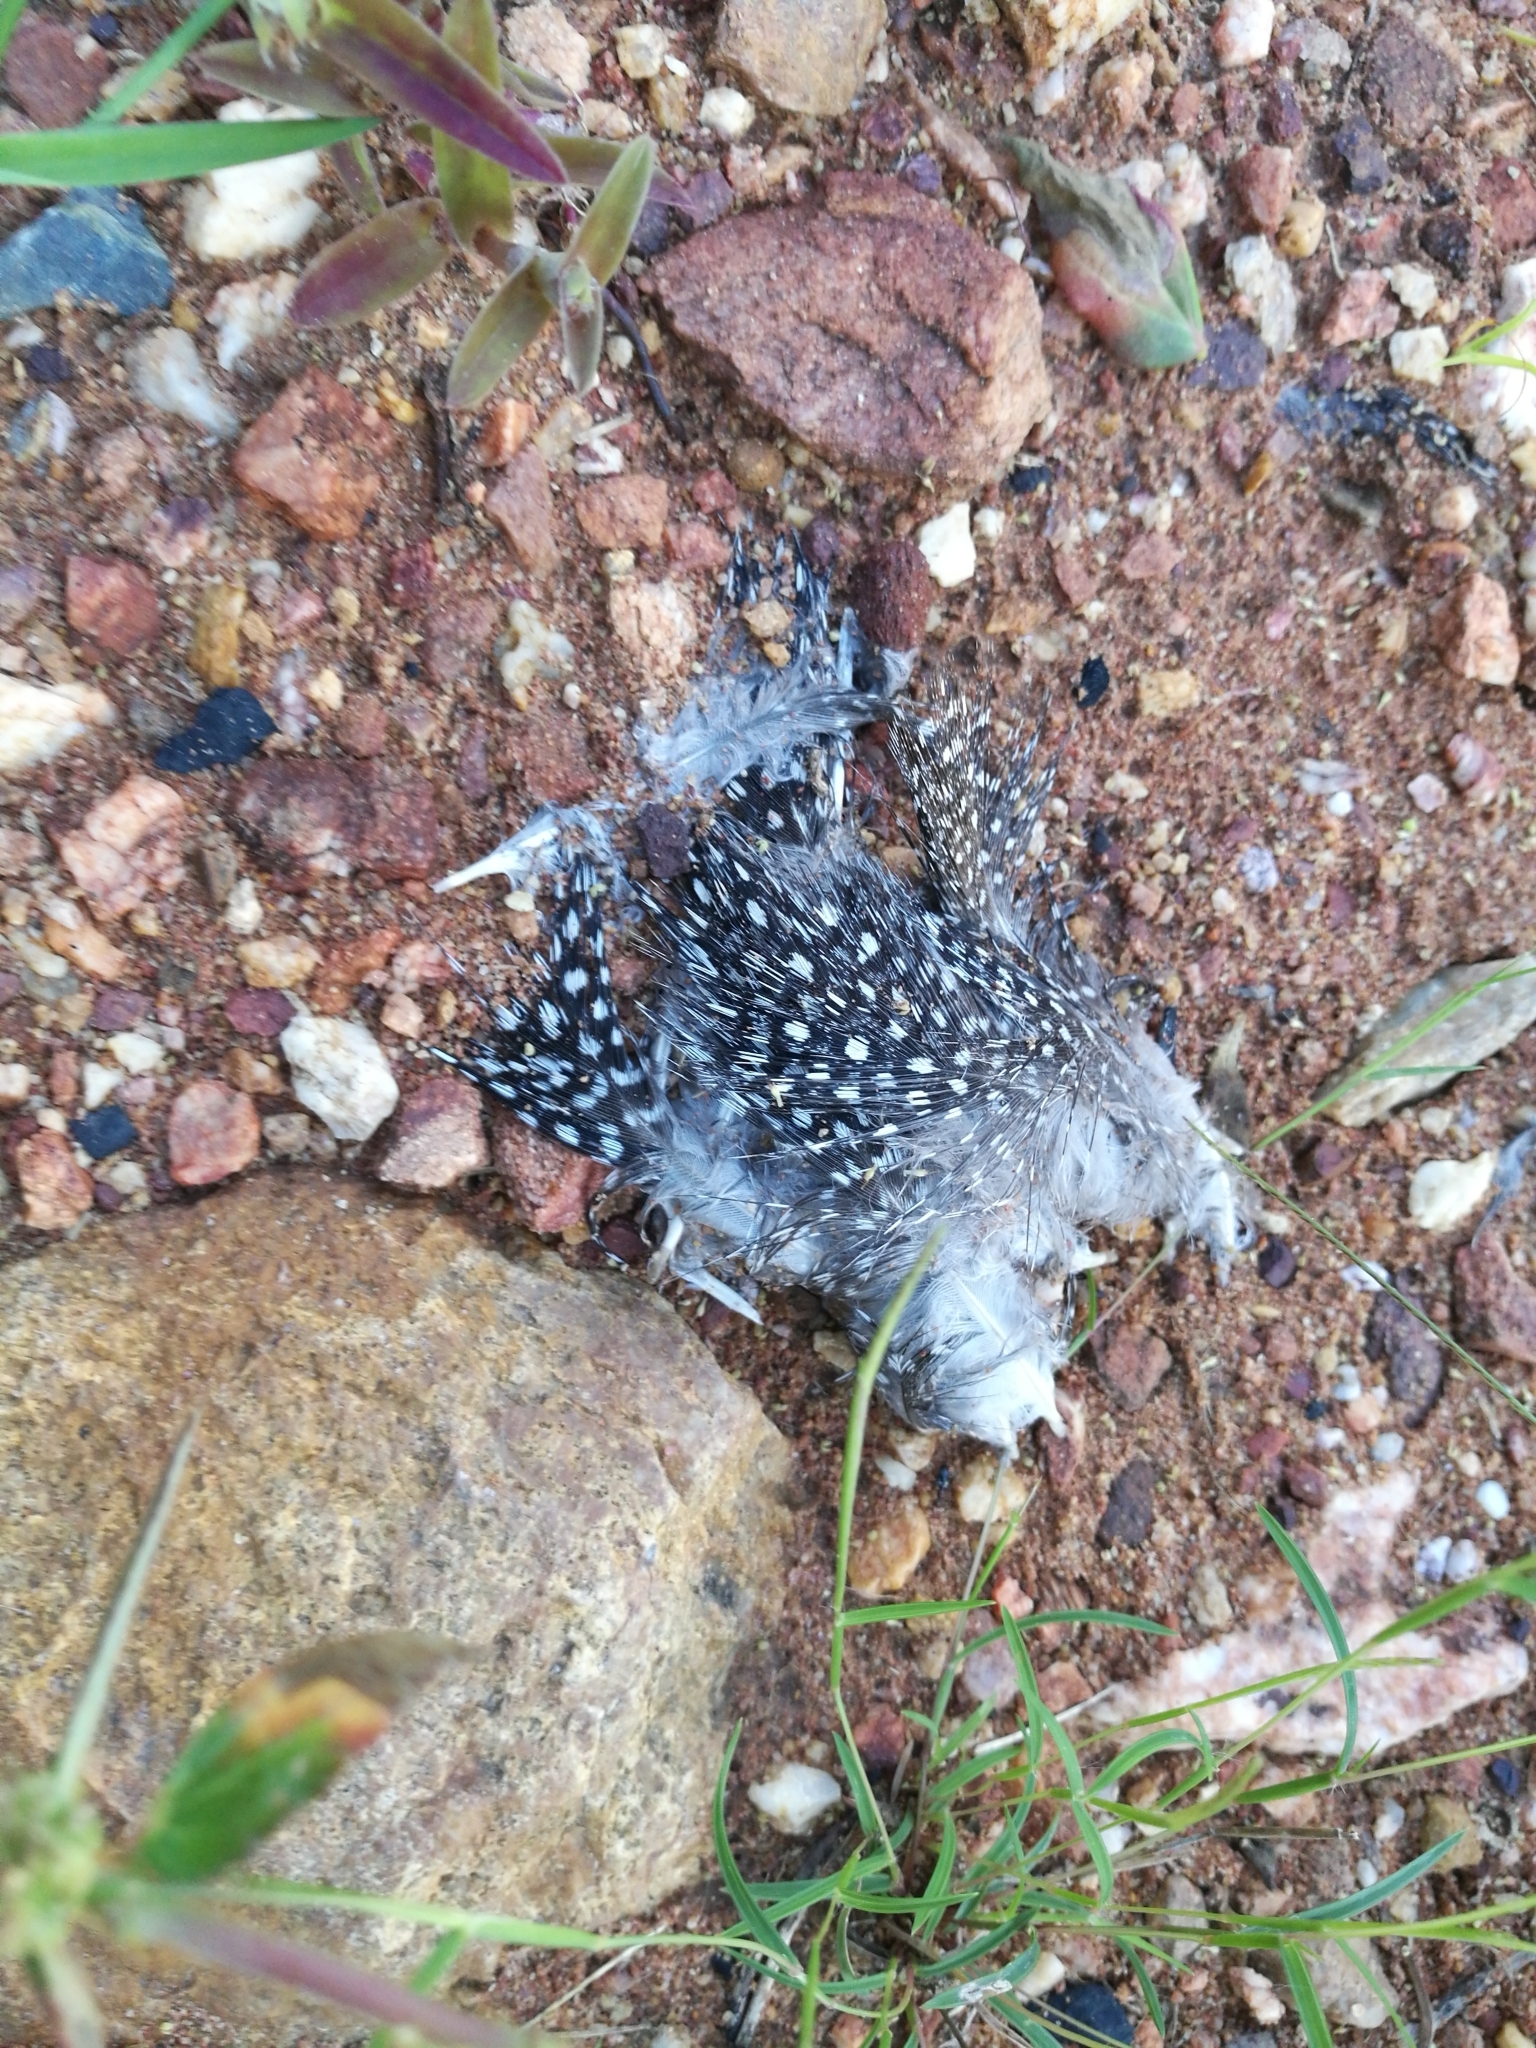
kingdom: Animalia
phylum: Chordata
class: Aves
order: Galliformes
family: Numididae
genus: Numida
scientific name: Numida meleagris
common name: Helmeted guineafowl
